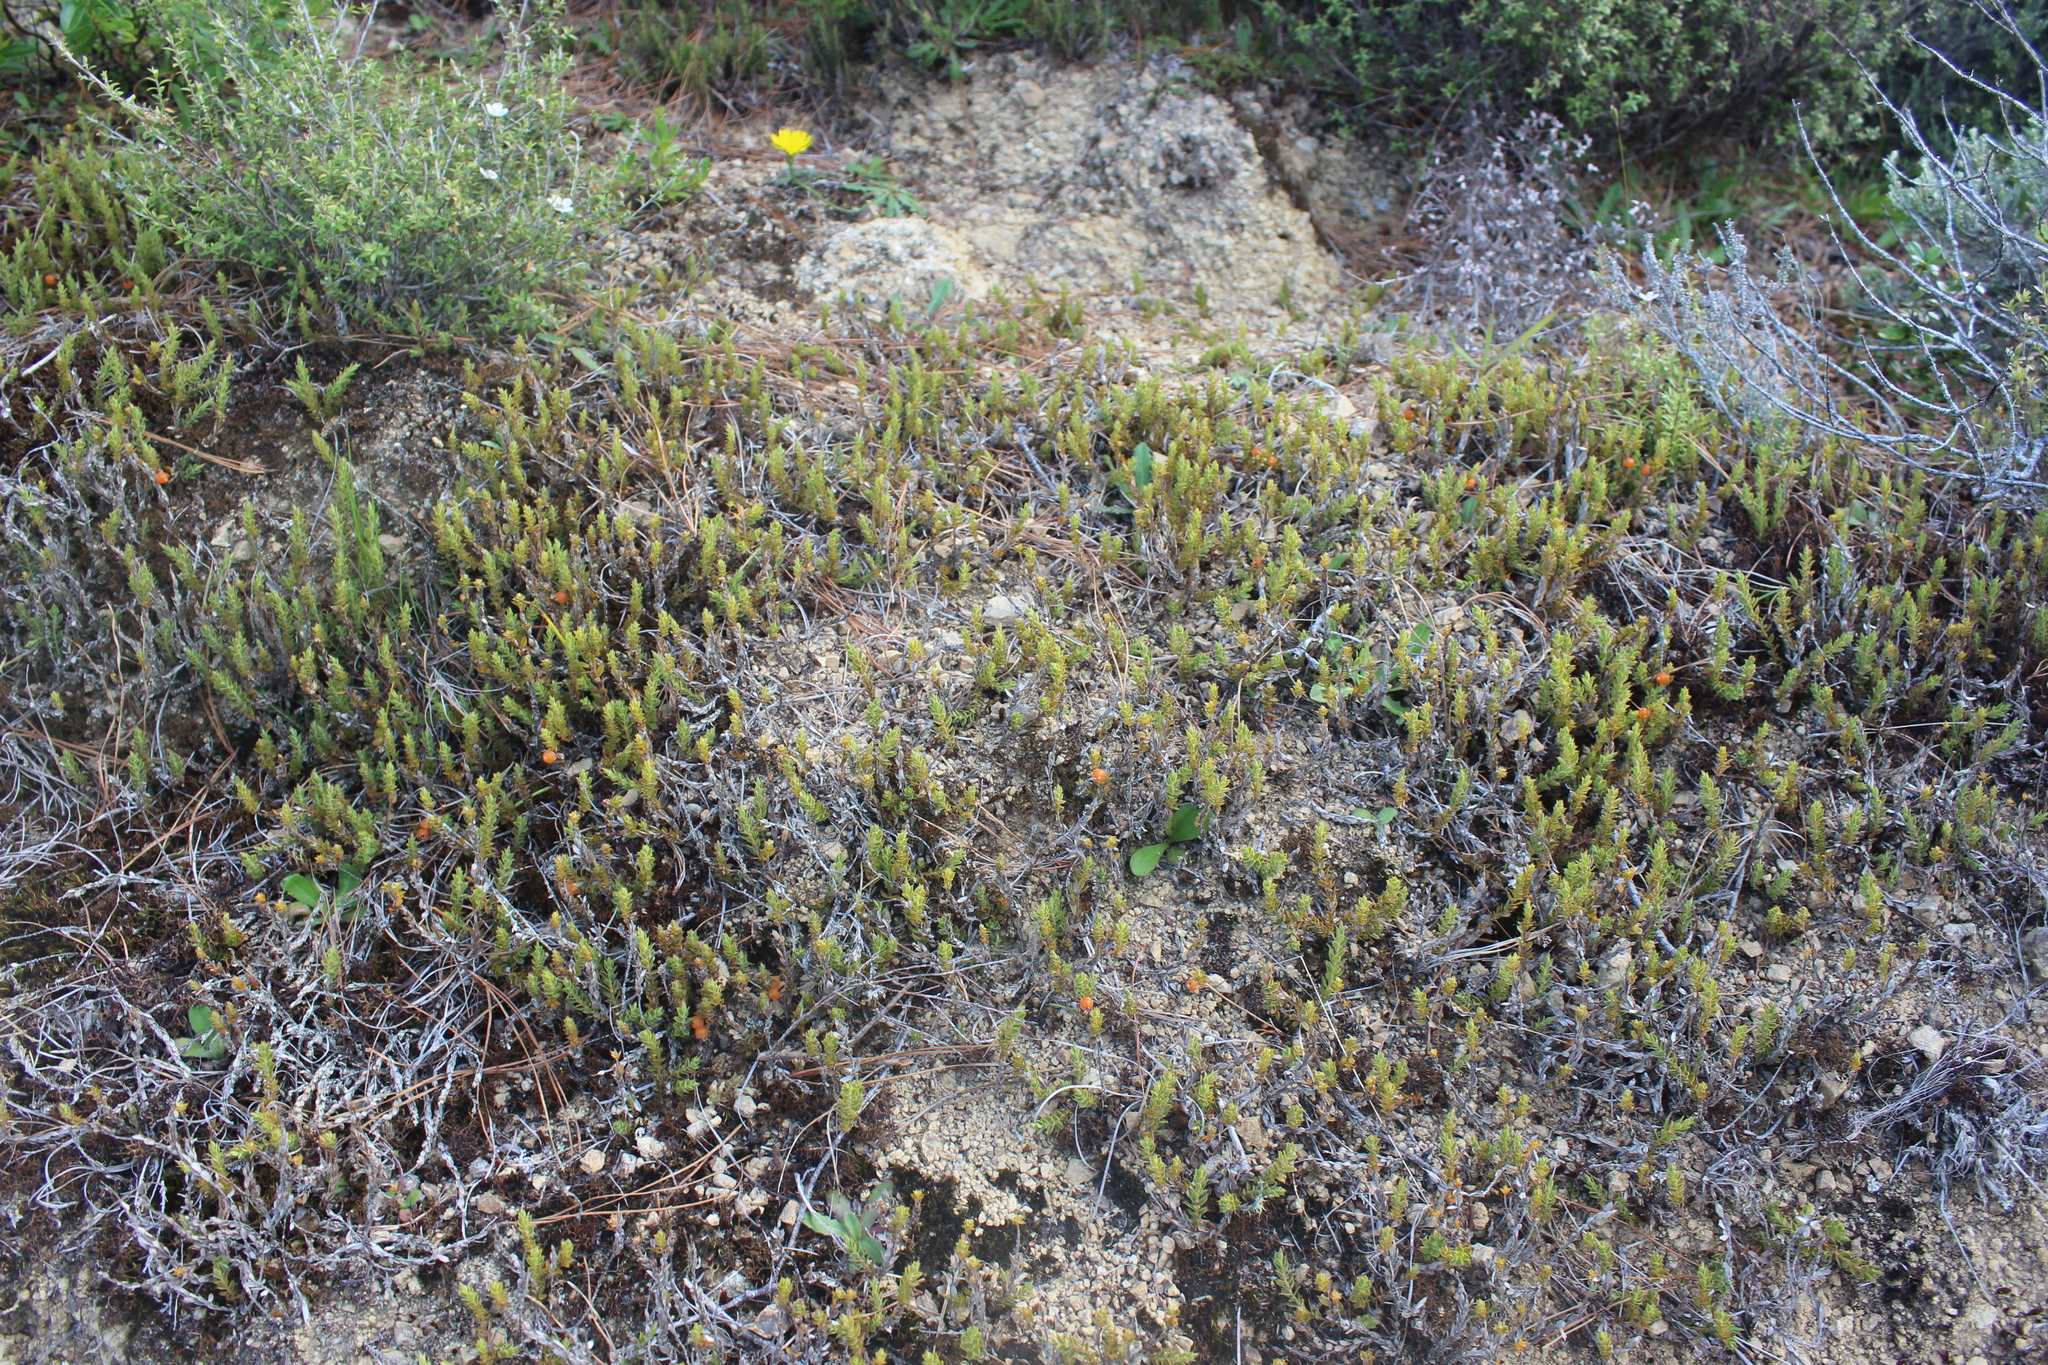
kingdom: Plantae
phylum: Tracheophyta
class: Magnoliopsida
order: Ericales
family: Ericaceae
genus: Styphelia
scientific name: Styphelia nesophila
